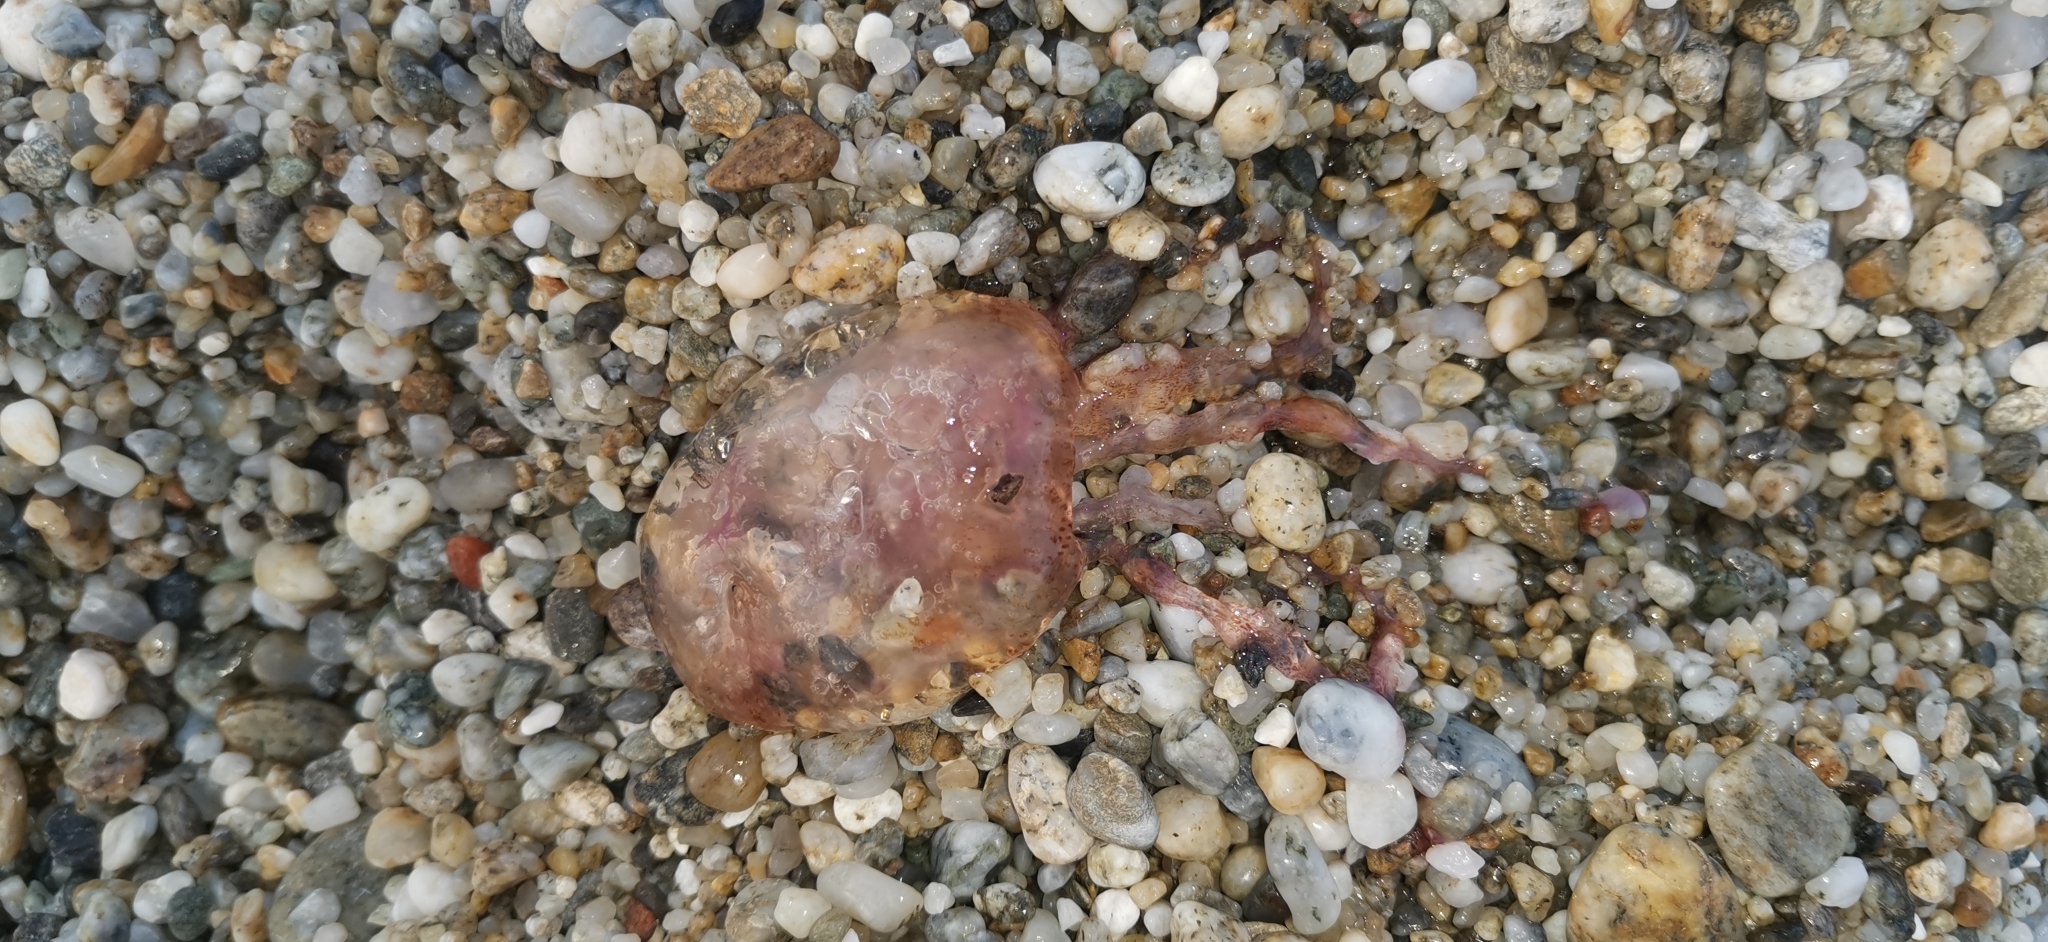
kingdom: Animalia
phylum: Cnidaria
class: Scyphozoa
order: Semaeostomeae
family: Pelagiidae
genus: Pelagia
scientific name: Pelagia noctiluca
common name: Mauve stinger
